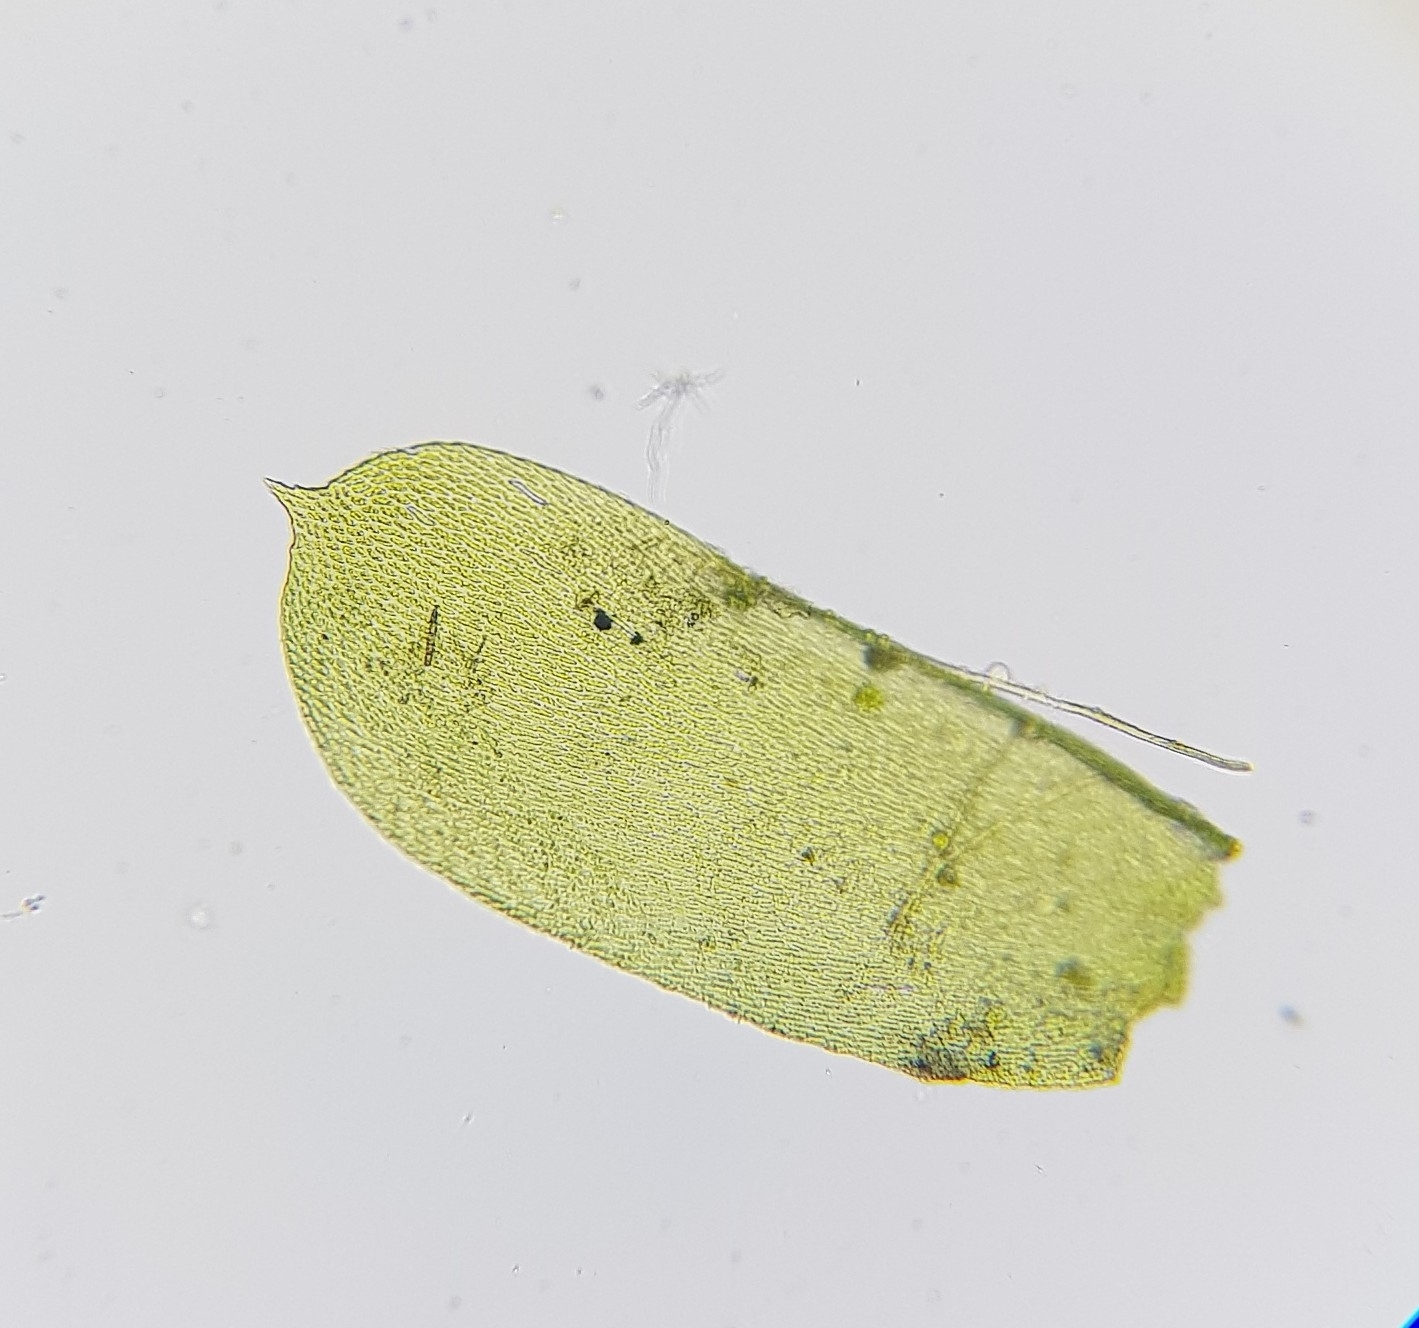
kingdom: Plantae
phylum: Bryophyta
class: Bryopsida
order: Hypnales
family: Neckeraceae
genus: Alleniella
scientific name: Alleniella complanata
